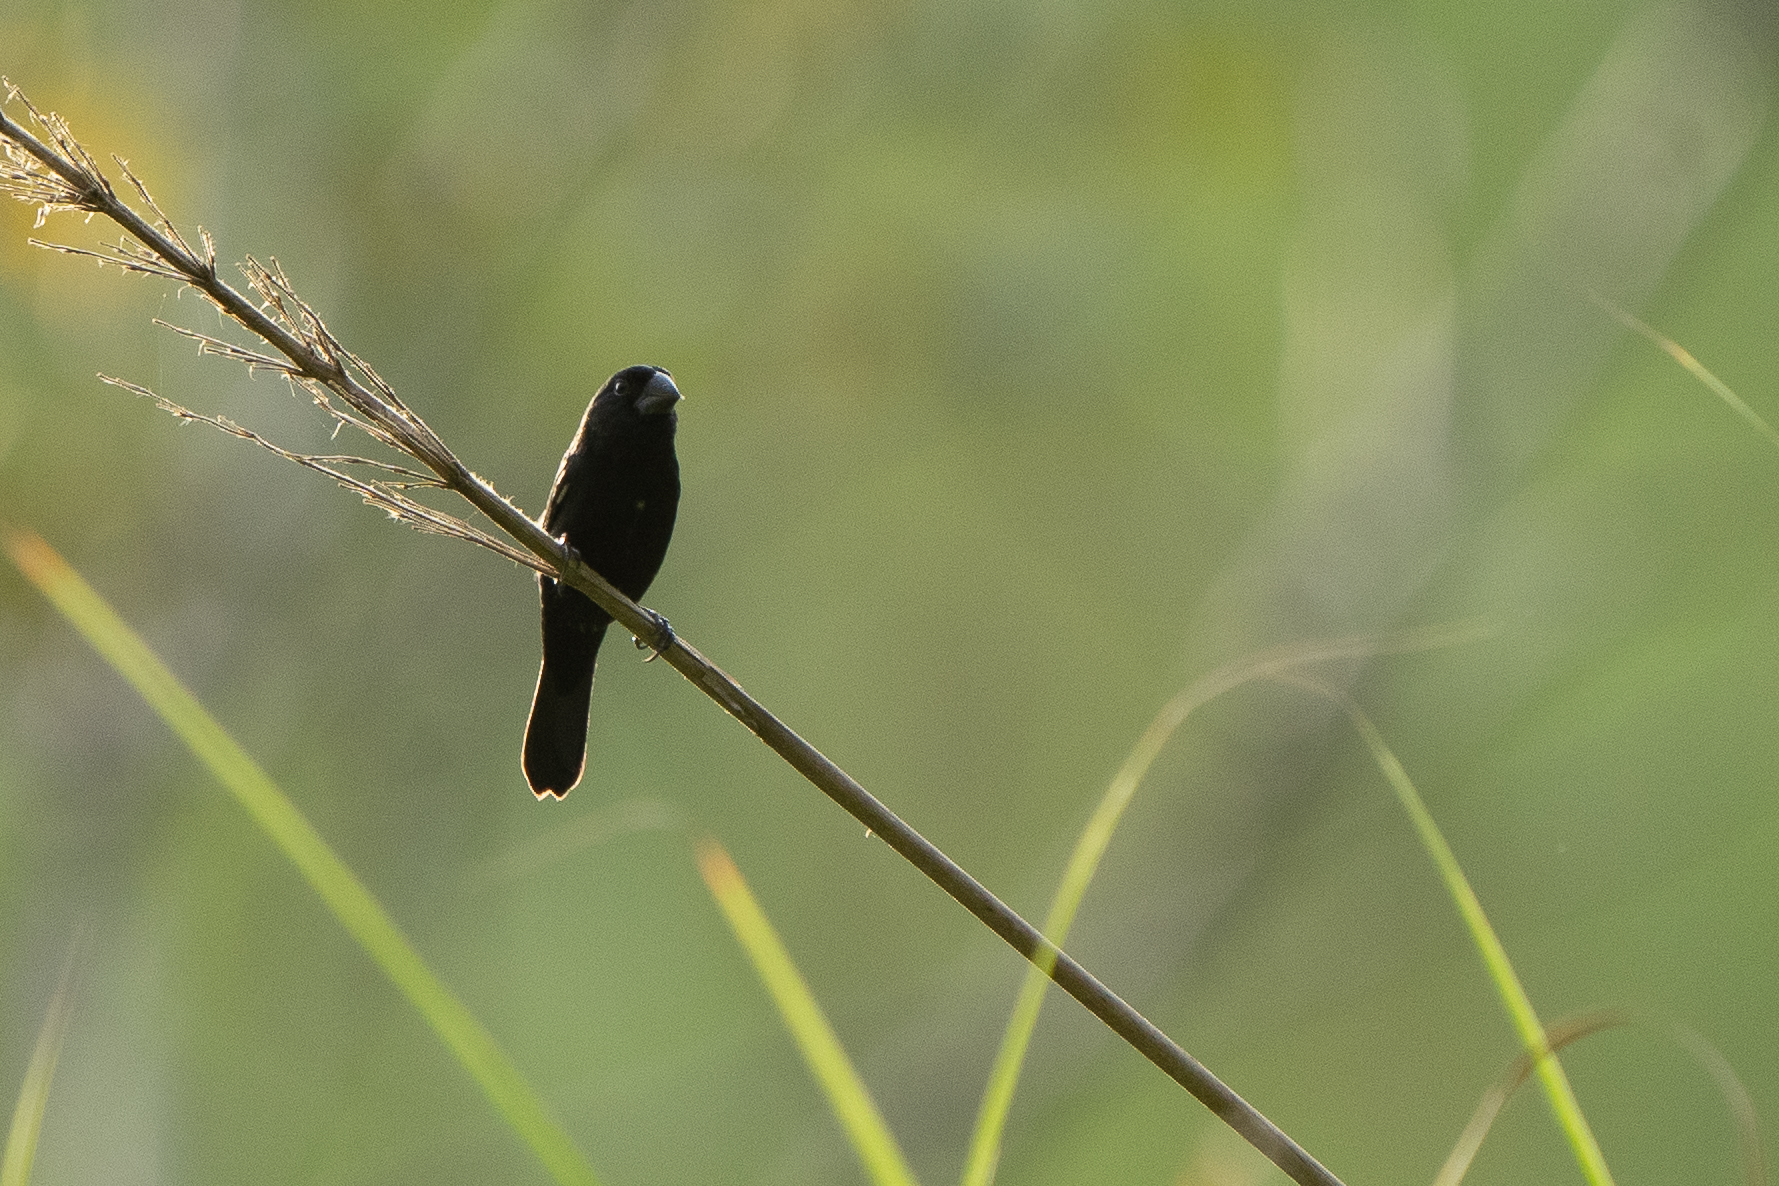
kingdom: Animalia
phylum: Chordata
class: Aves
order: Passeriformes
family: Thraupidae
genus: Sporophila
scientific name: Sporophila funerea
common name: Thick-billed seed-finch
